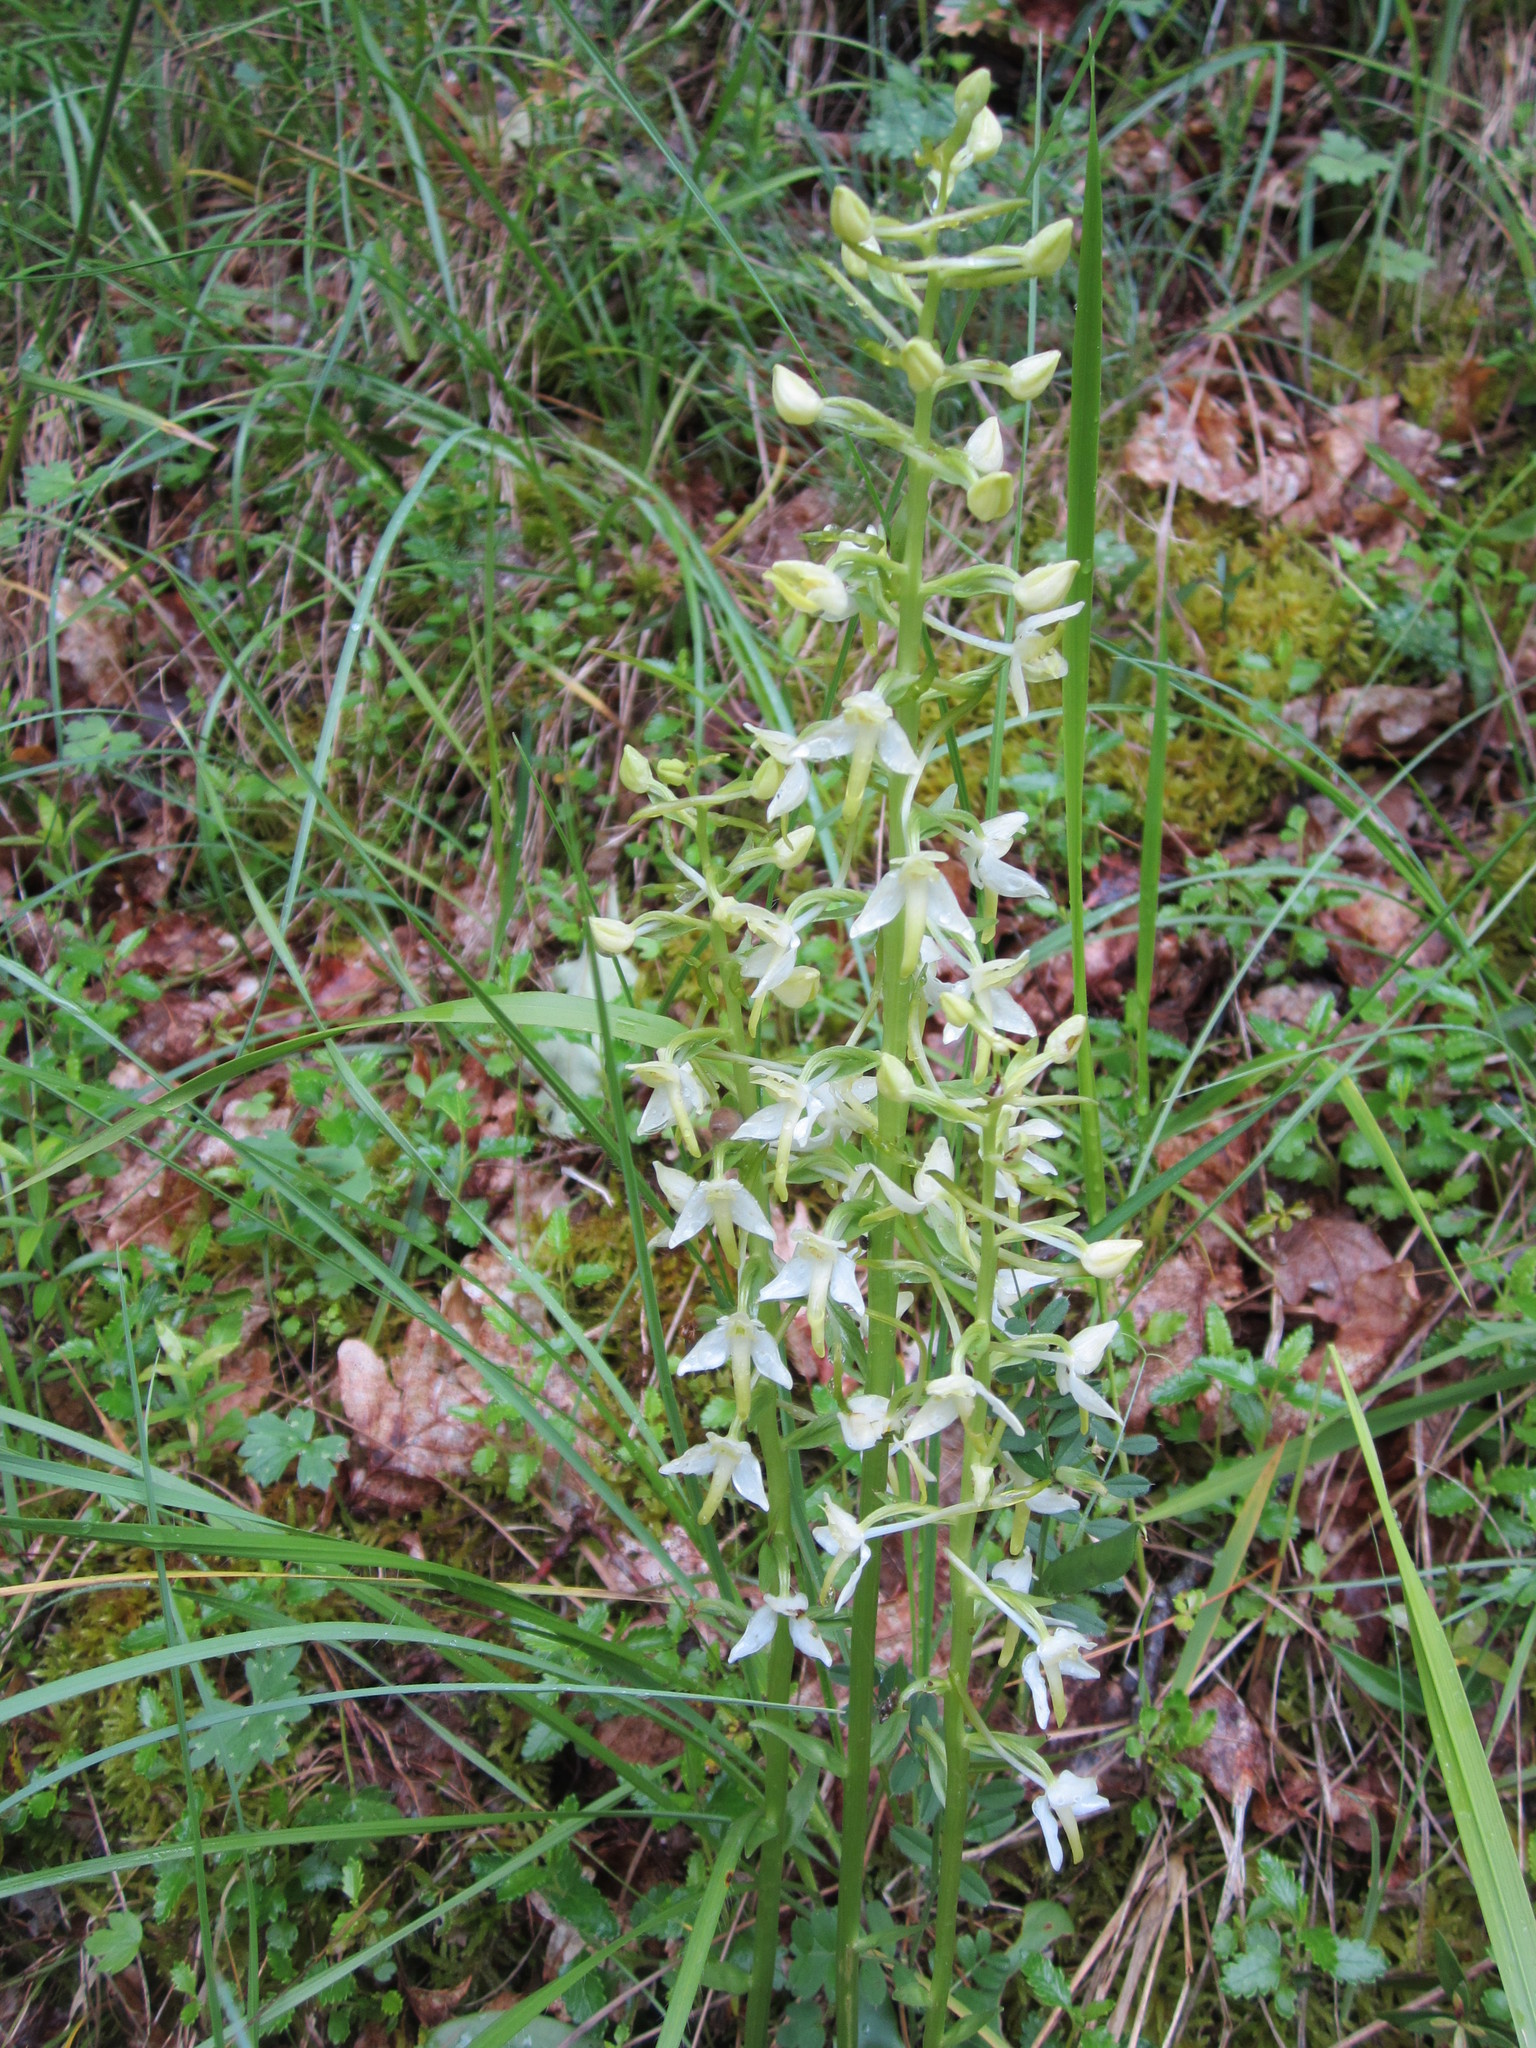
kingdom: Plantae
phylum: Tracheophyta
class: Liliopsida
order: Asparagales
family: Orchidaceae
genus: Platanthera
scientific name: Platanthera bifolia
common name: Lesser butterfly-orchid
